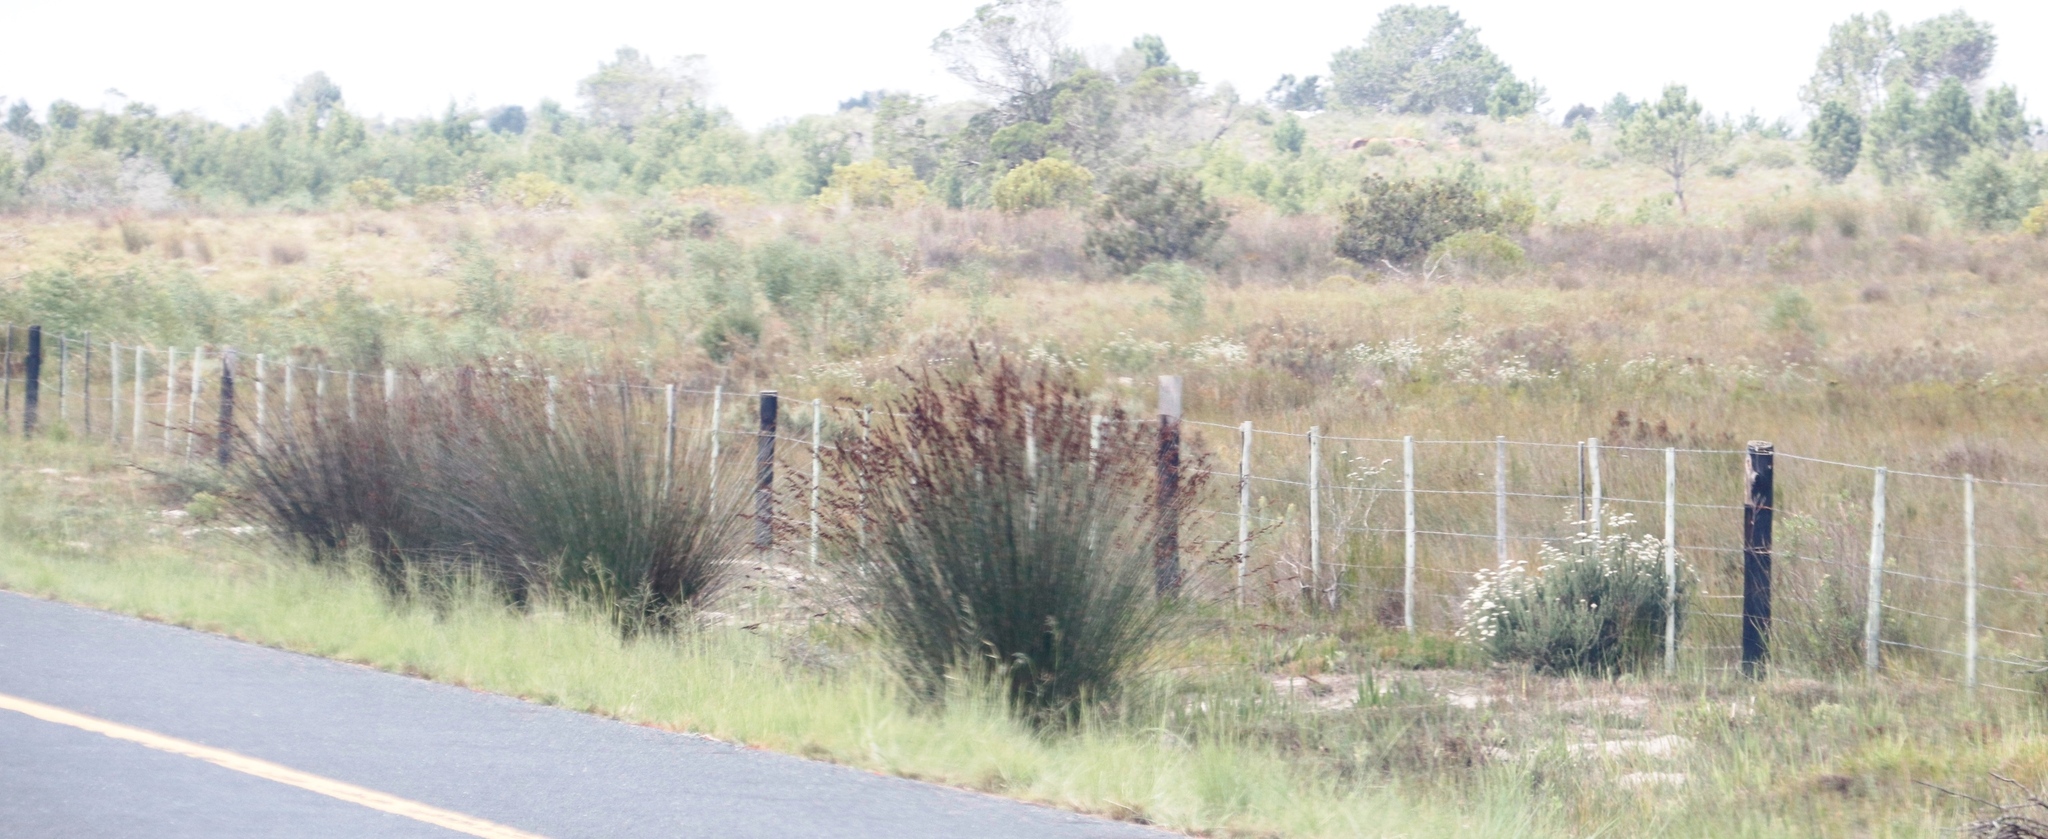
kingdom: Plantae
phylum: Tracheophyta
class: Liliopsida
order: Poales
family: Restionaceae
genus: Thamnochortus
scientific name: Thamnochortus insignis
